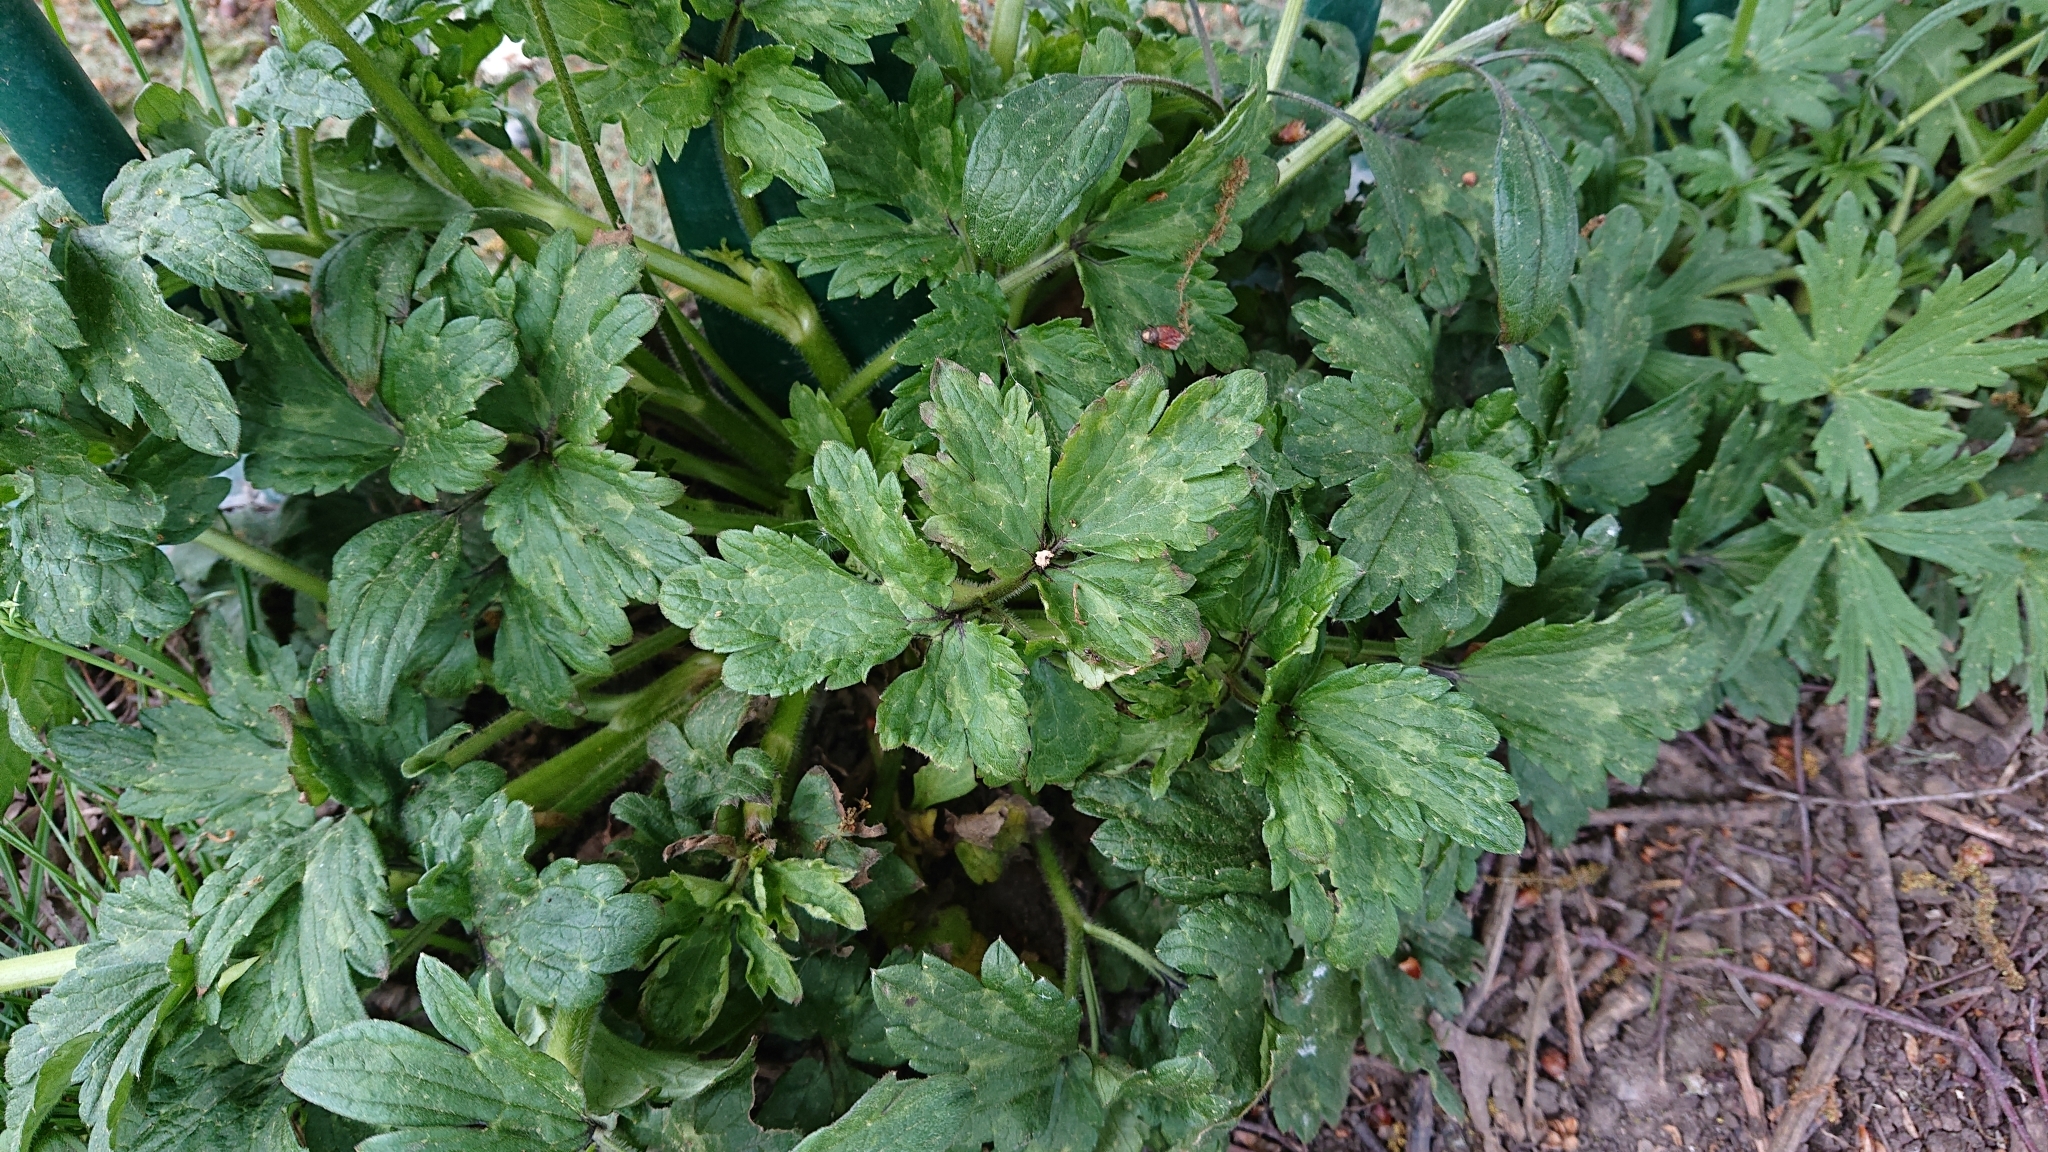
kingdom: Plantae
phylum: Tracheophyta
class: Magnoliopsida
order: Ranunculales
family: Ranunculaceae
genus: Ranunculus
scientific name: Ranunculus repens
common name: Creeping buttercup
